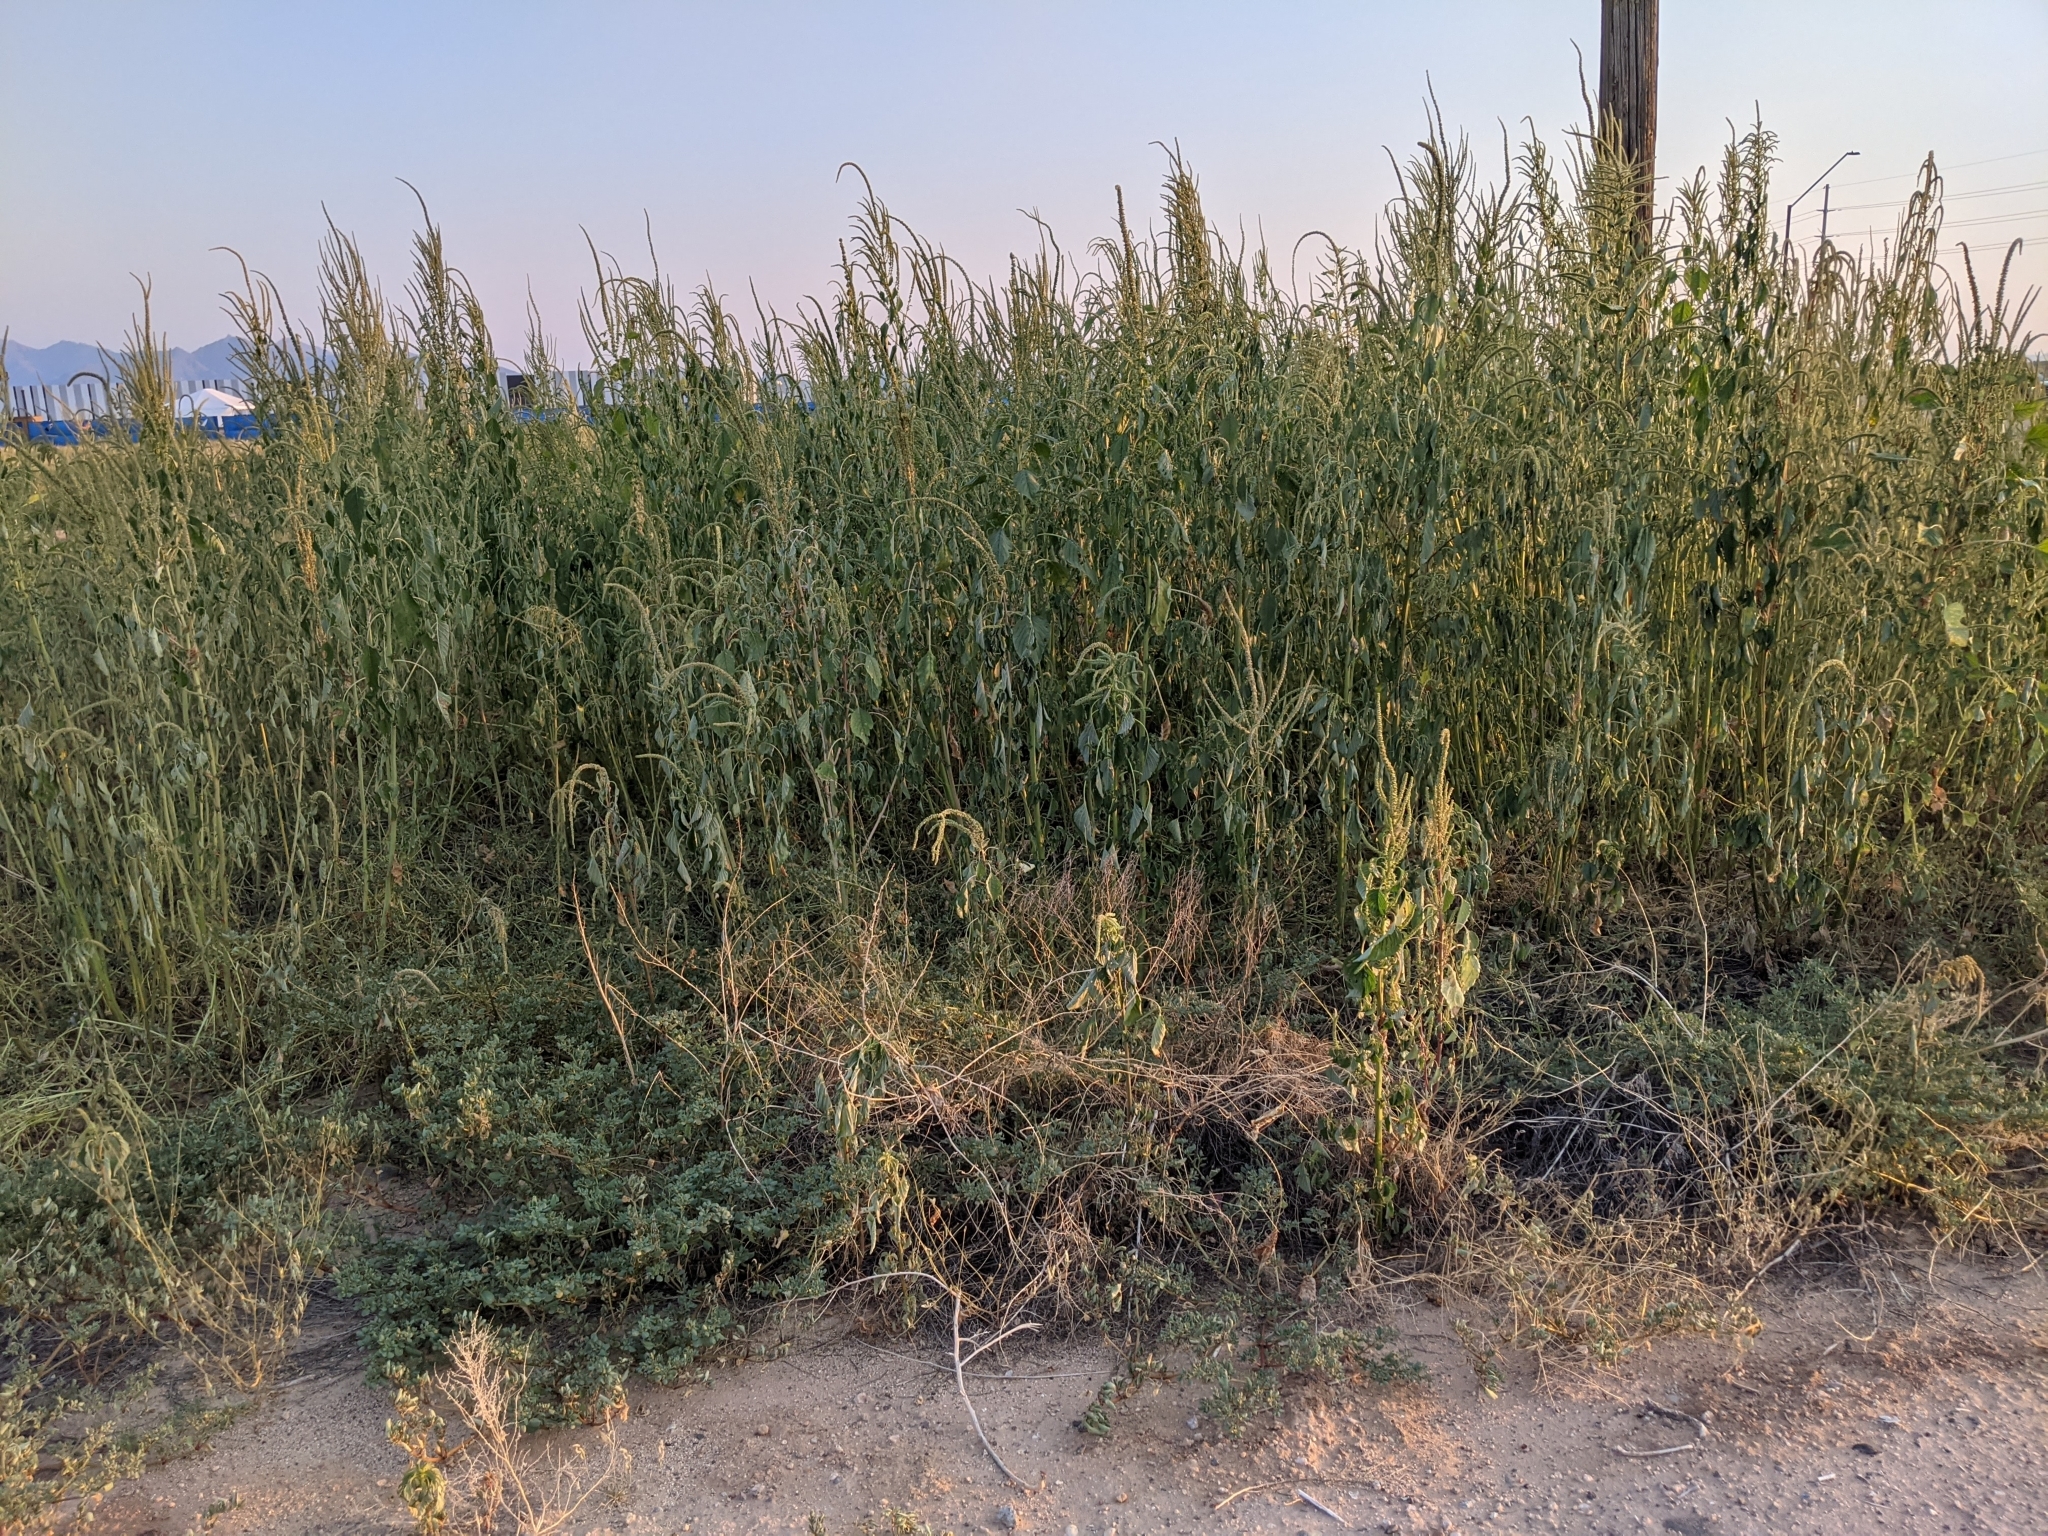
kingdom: Plantae
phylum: Tracheophyta
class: Magnoliopsida
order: Caryophyllales
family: Amaranthaceae
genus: Amaranthus
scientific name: Amaranthus palmeri
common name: Dioecious amaranth
